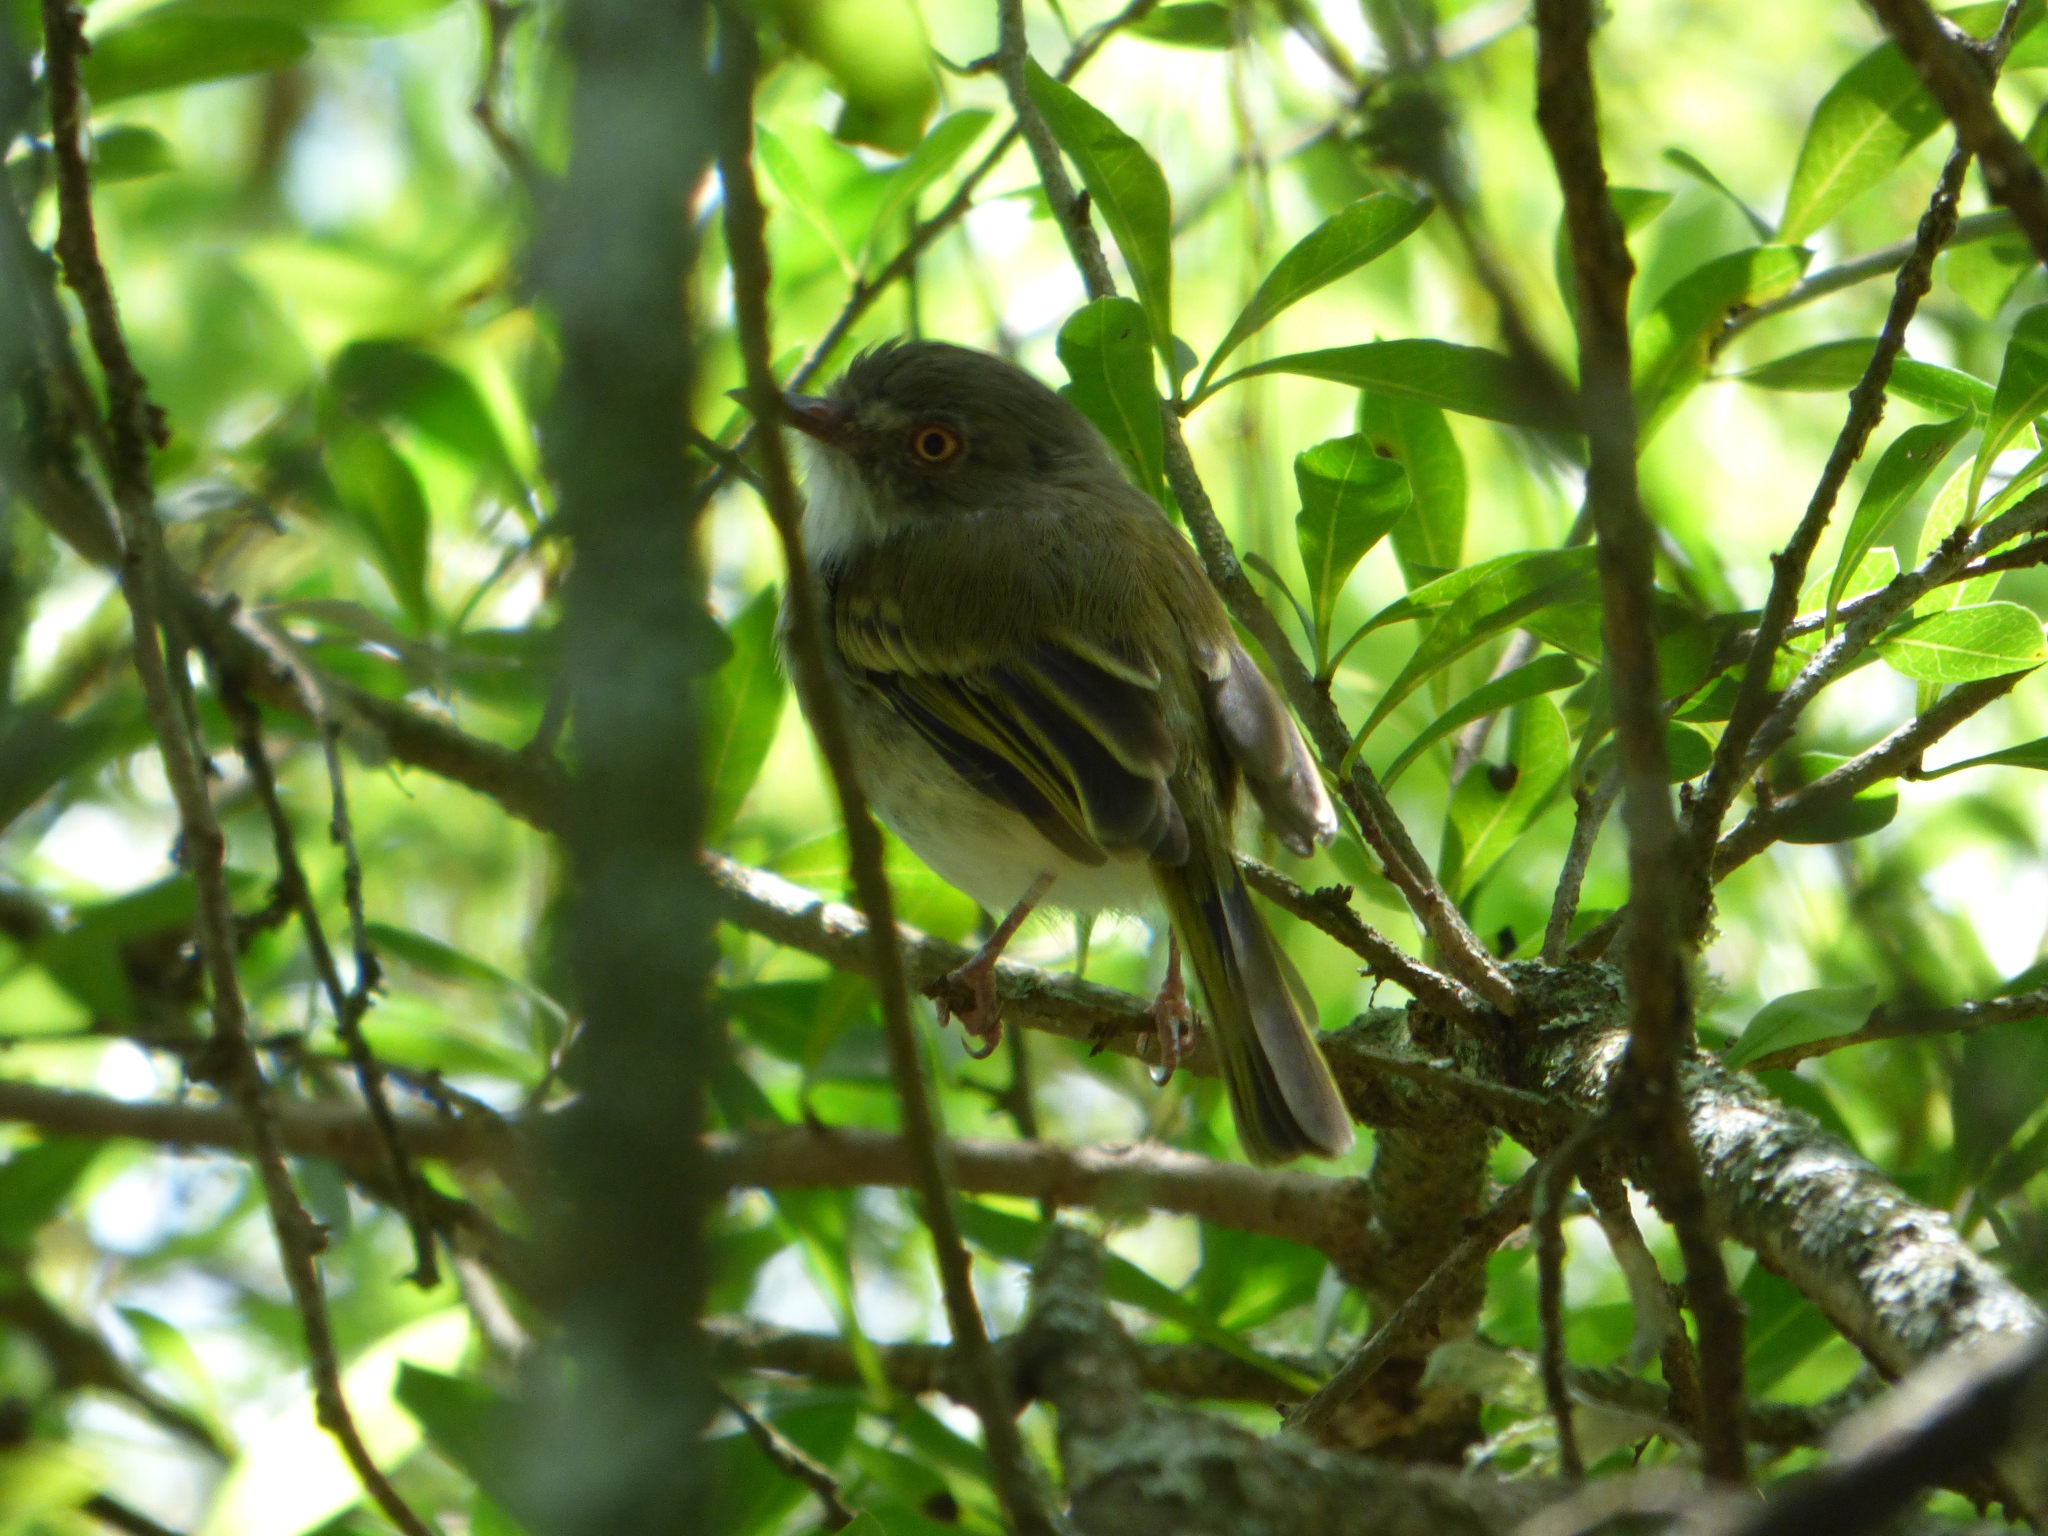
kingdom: Animalia
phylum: Chordata
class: Aves
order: Passeriformes
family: Tyrannidae
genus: Hemitriccus
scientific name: Hemitriccus margaritaceiventer
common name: Pearly-vented tody-tyrant
